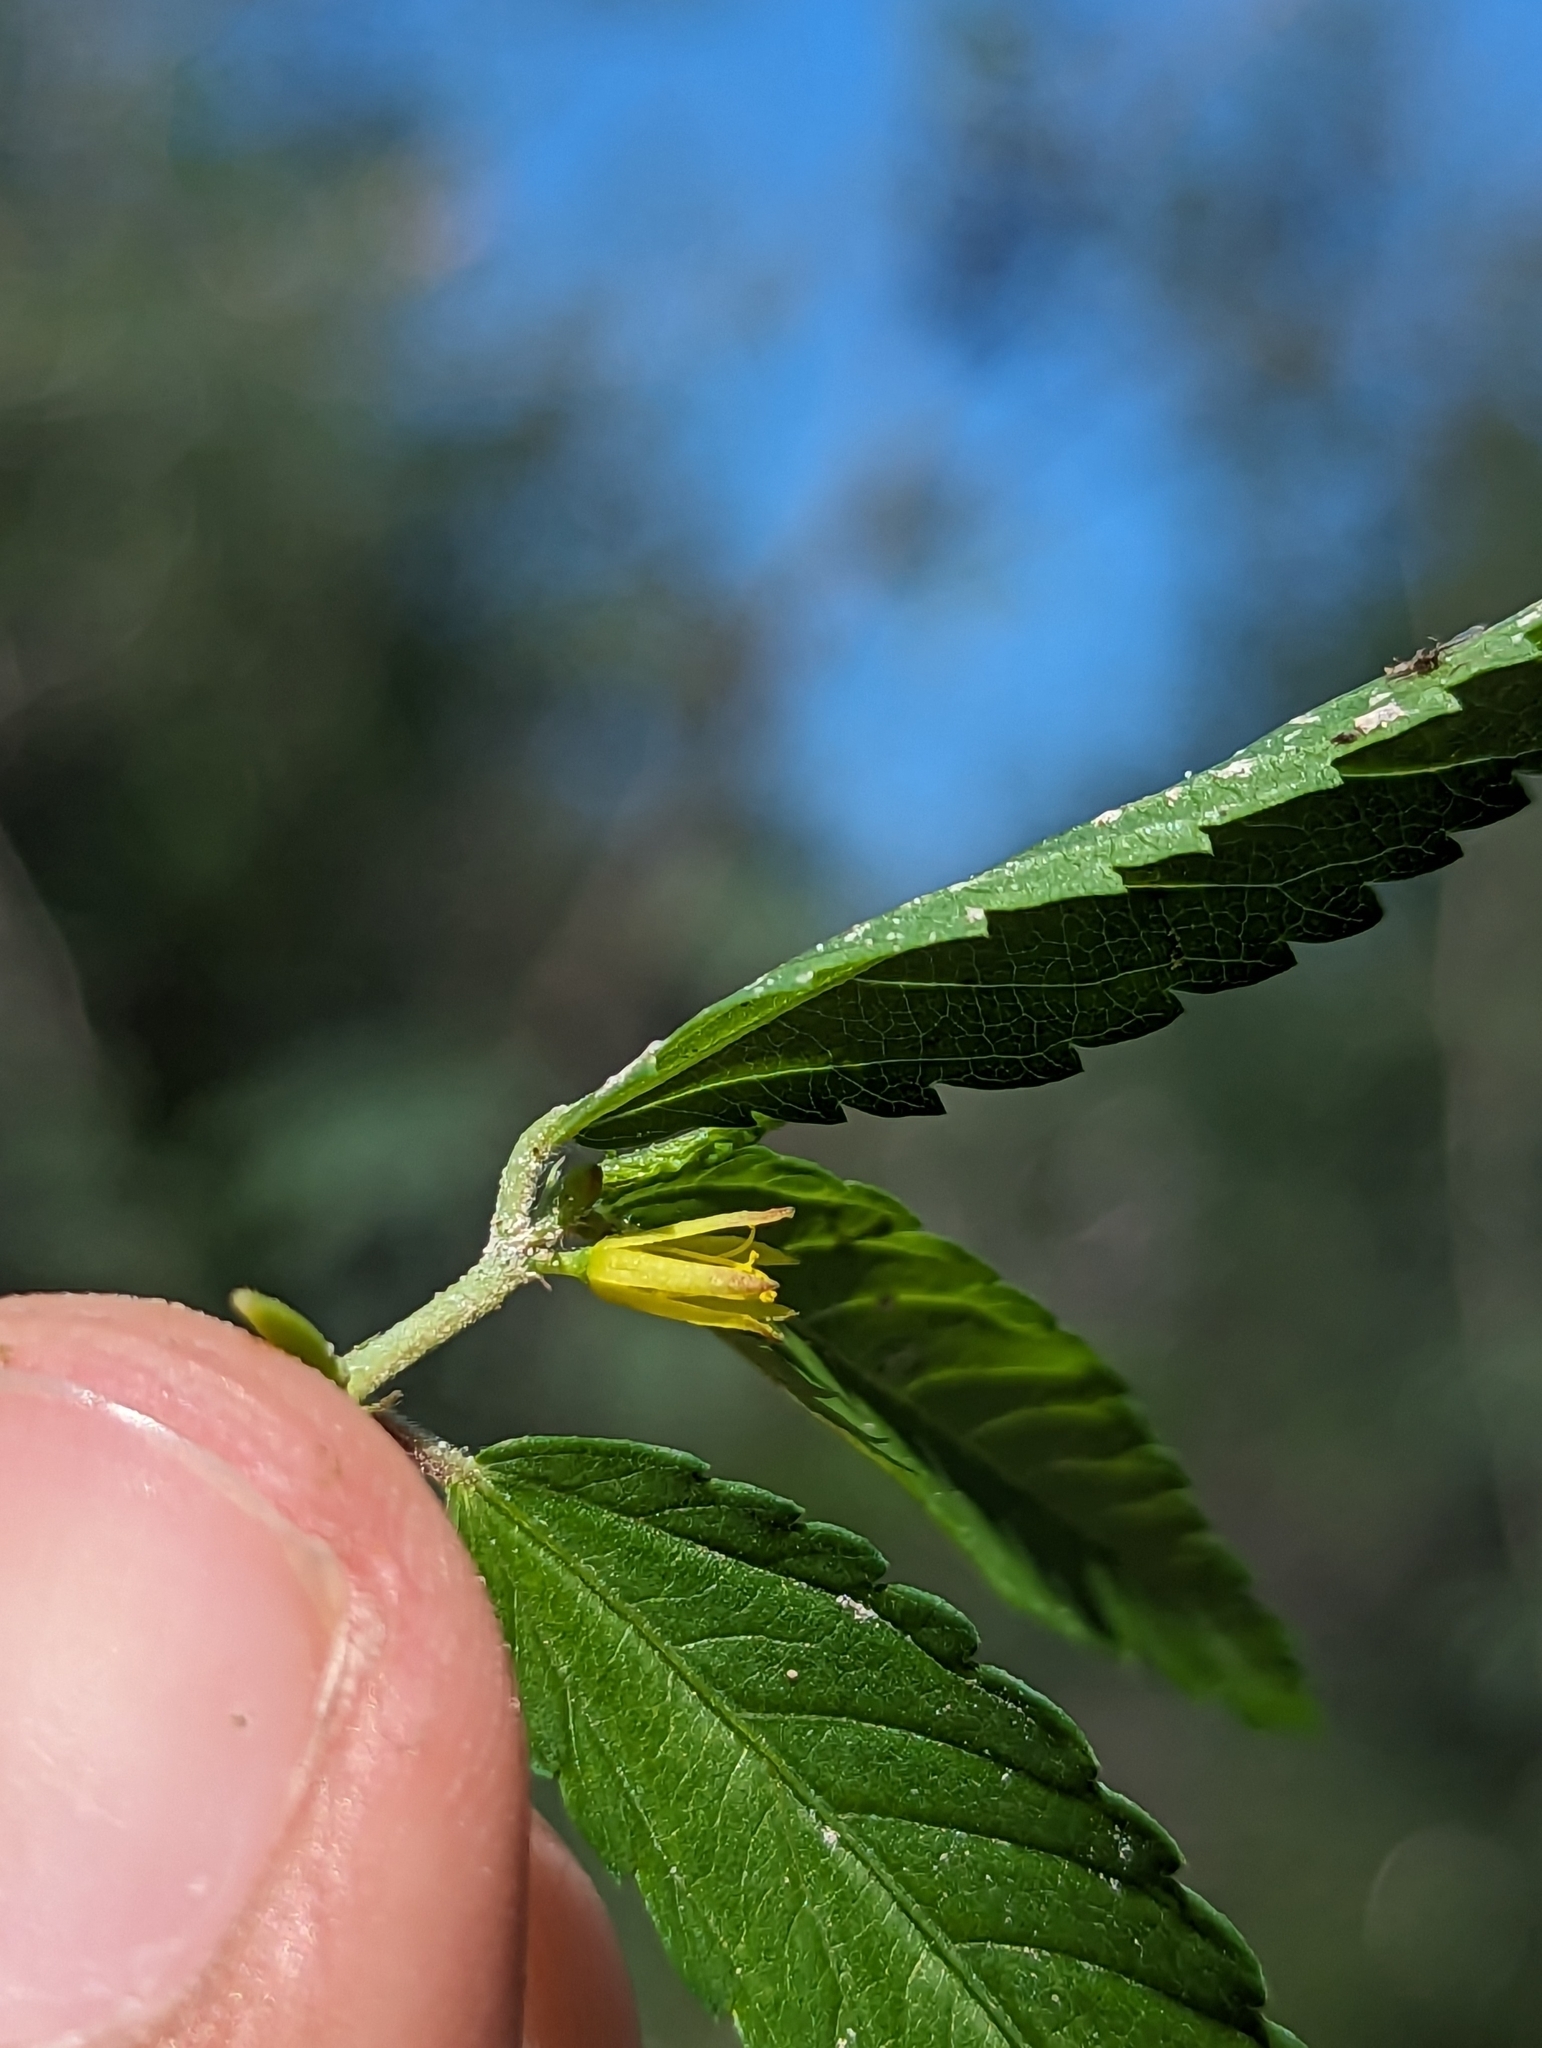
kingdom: Plantae
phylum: Tracheophyta
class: Magnoliopsida
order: Malvales
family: Malvaceae
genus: Corchorus
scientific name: Corchorus hirtus
